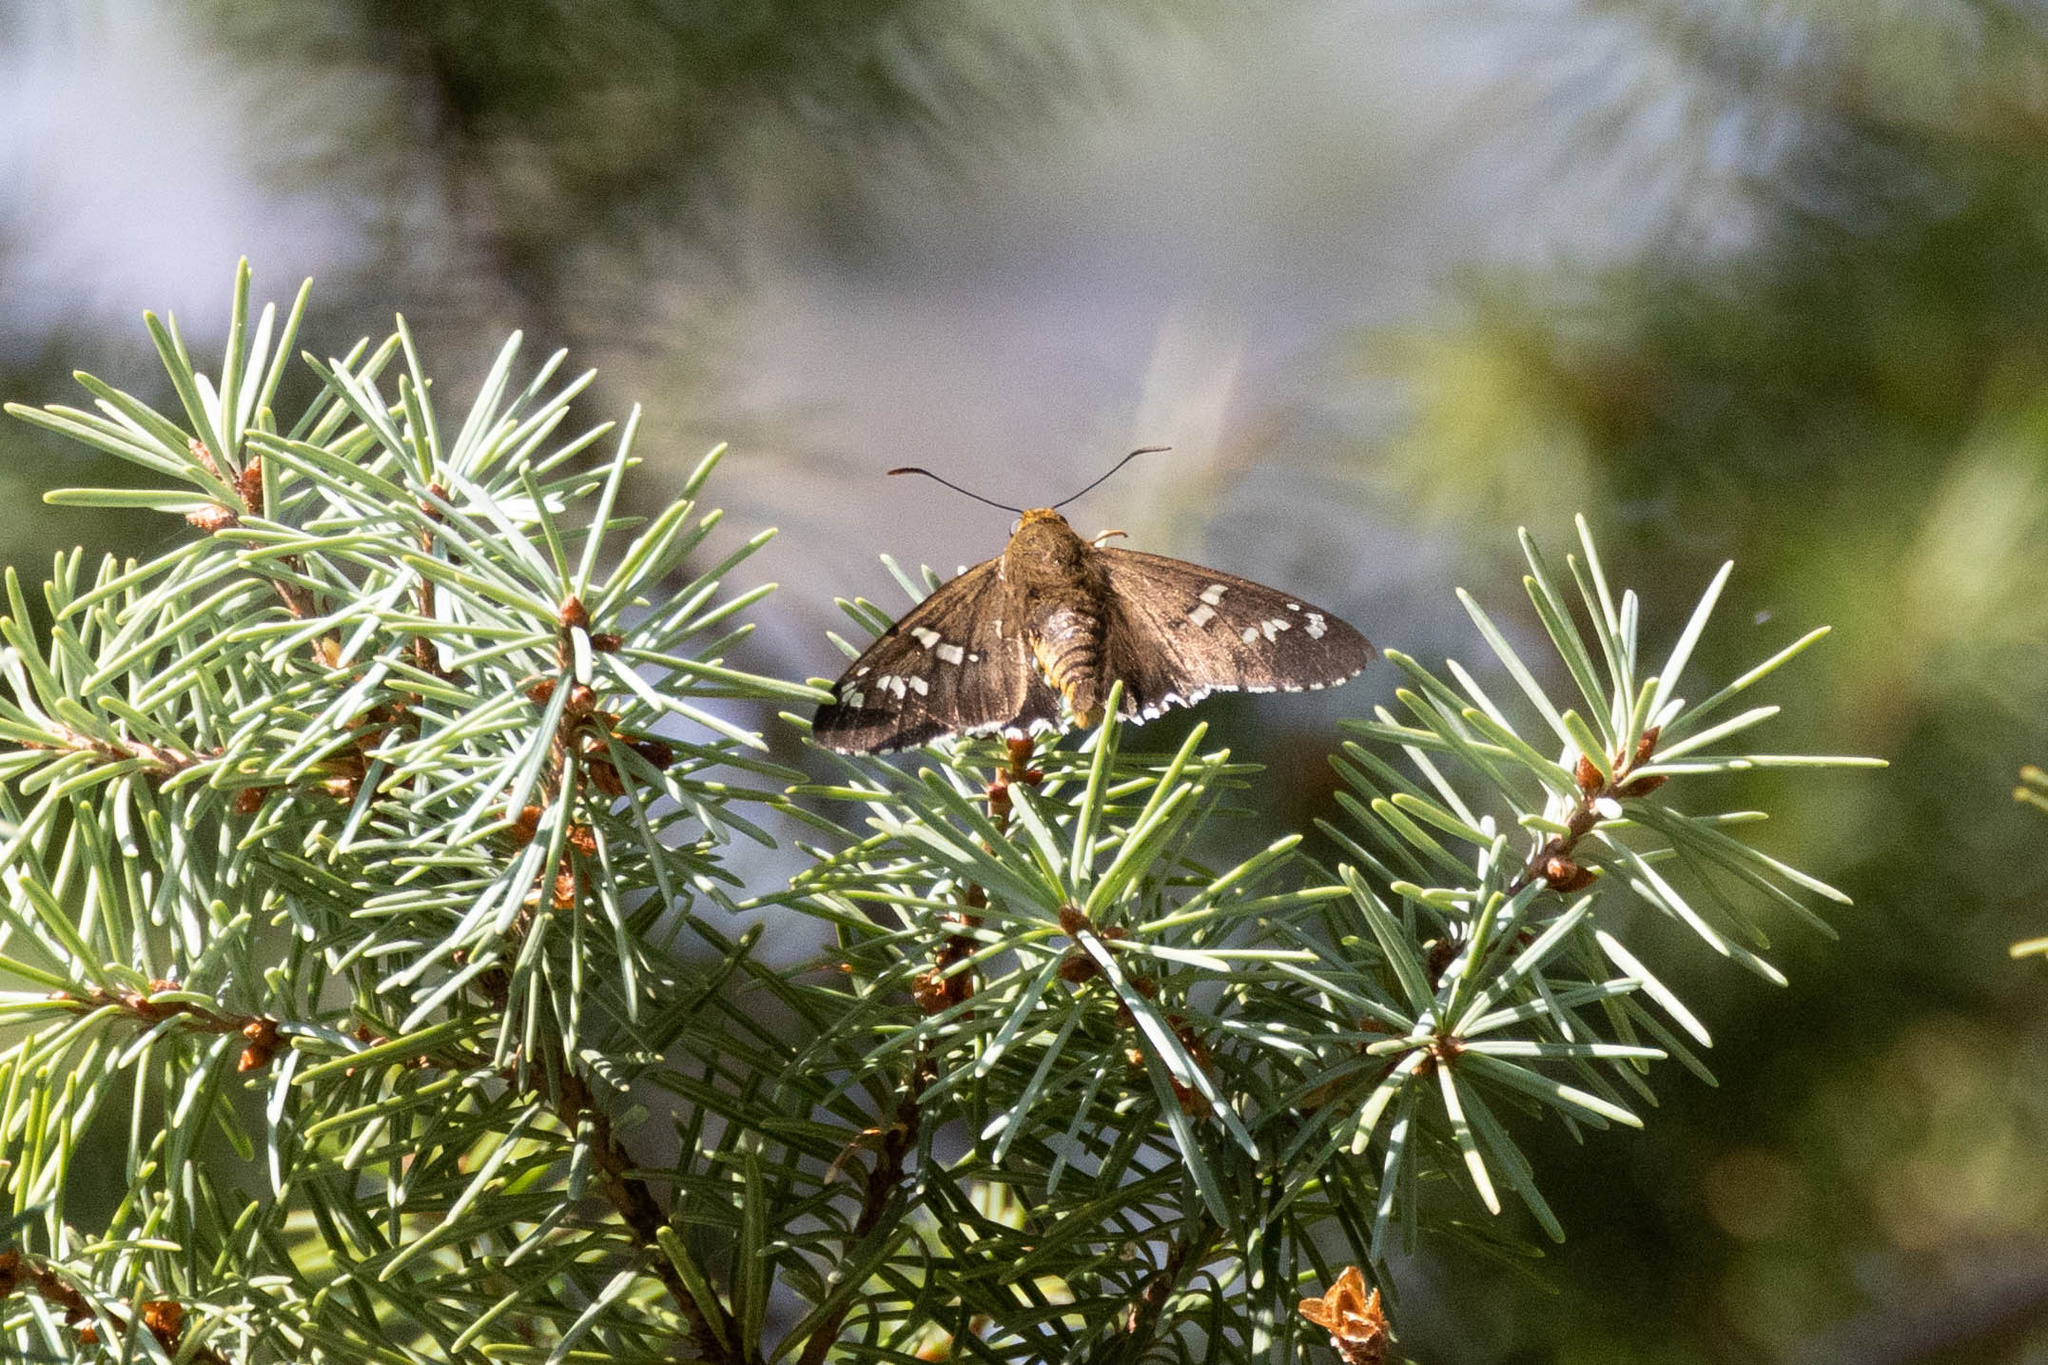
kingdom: Animalia
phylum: Arthropoda
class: Insecta
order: Lepidoptera
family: Hesperiidae
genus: Pyrrhopyge
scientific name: Pyrrhopyge araxes
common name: Dull firetip
